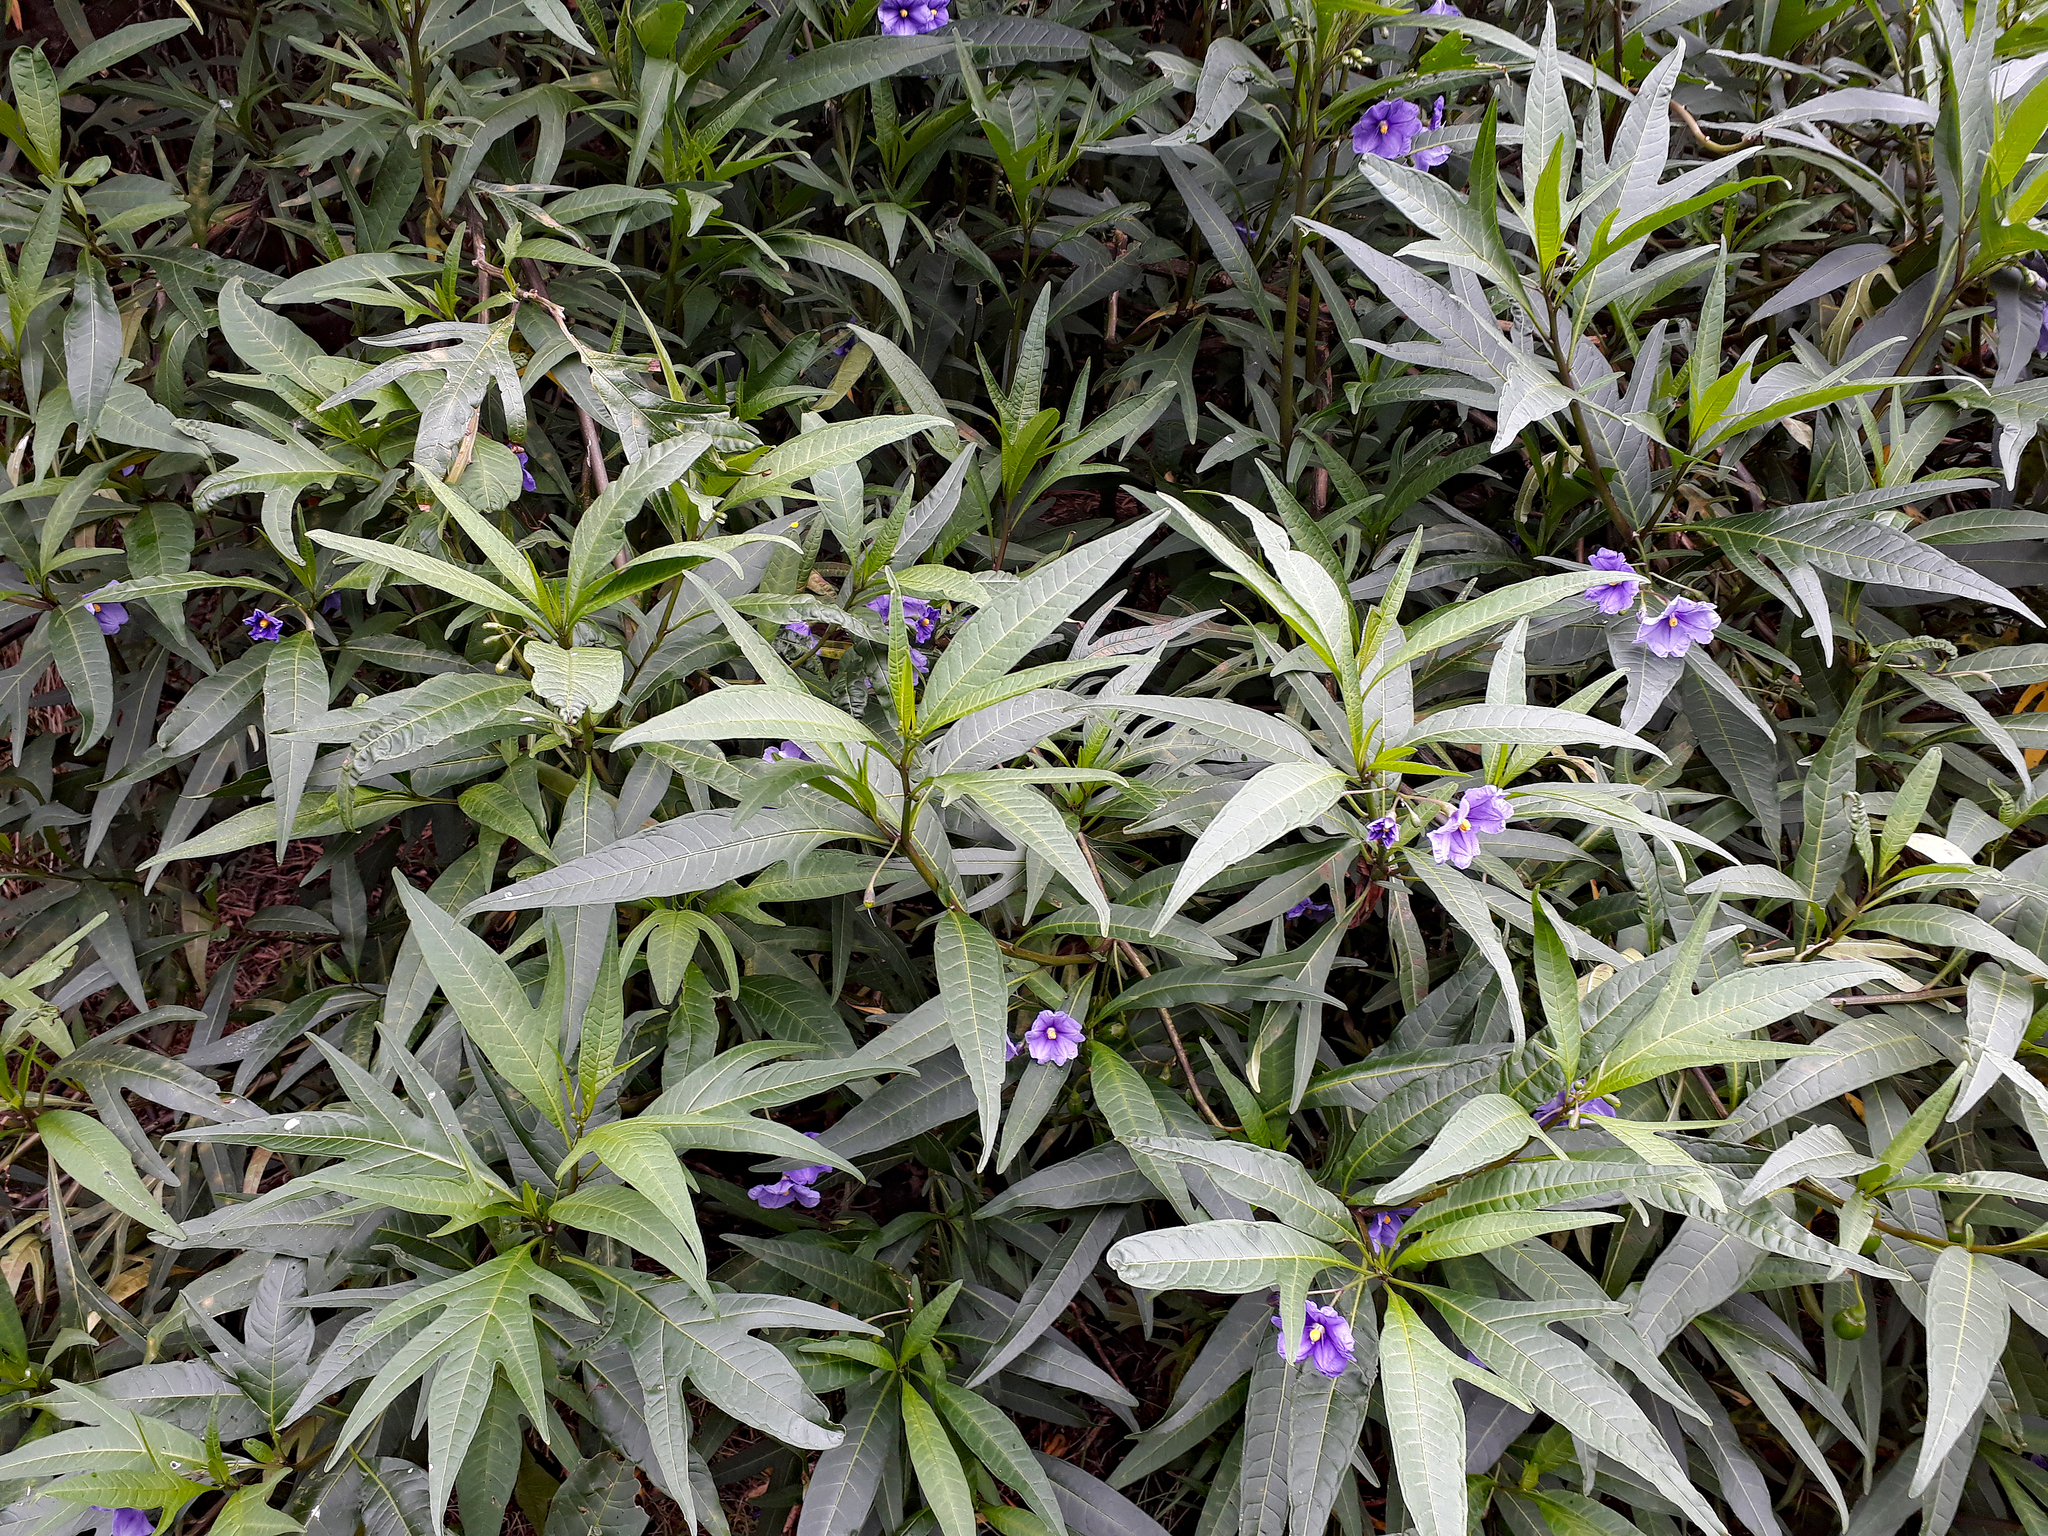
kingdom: Plantae
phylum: Tracheophyta
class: Magnoliopsida
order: Solanales
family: Solanaceae
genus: Solanum
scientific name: Solanum laciniatum
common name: Kangaroo-apple
